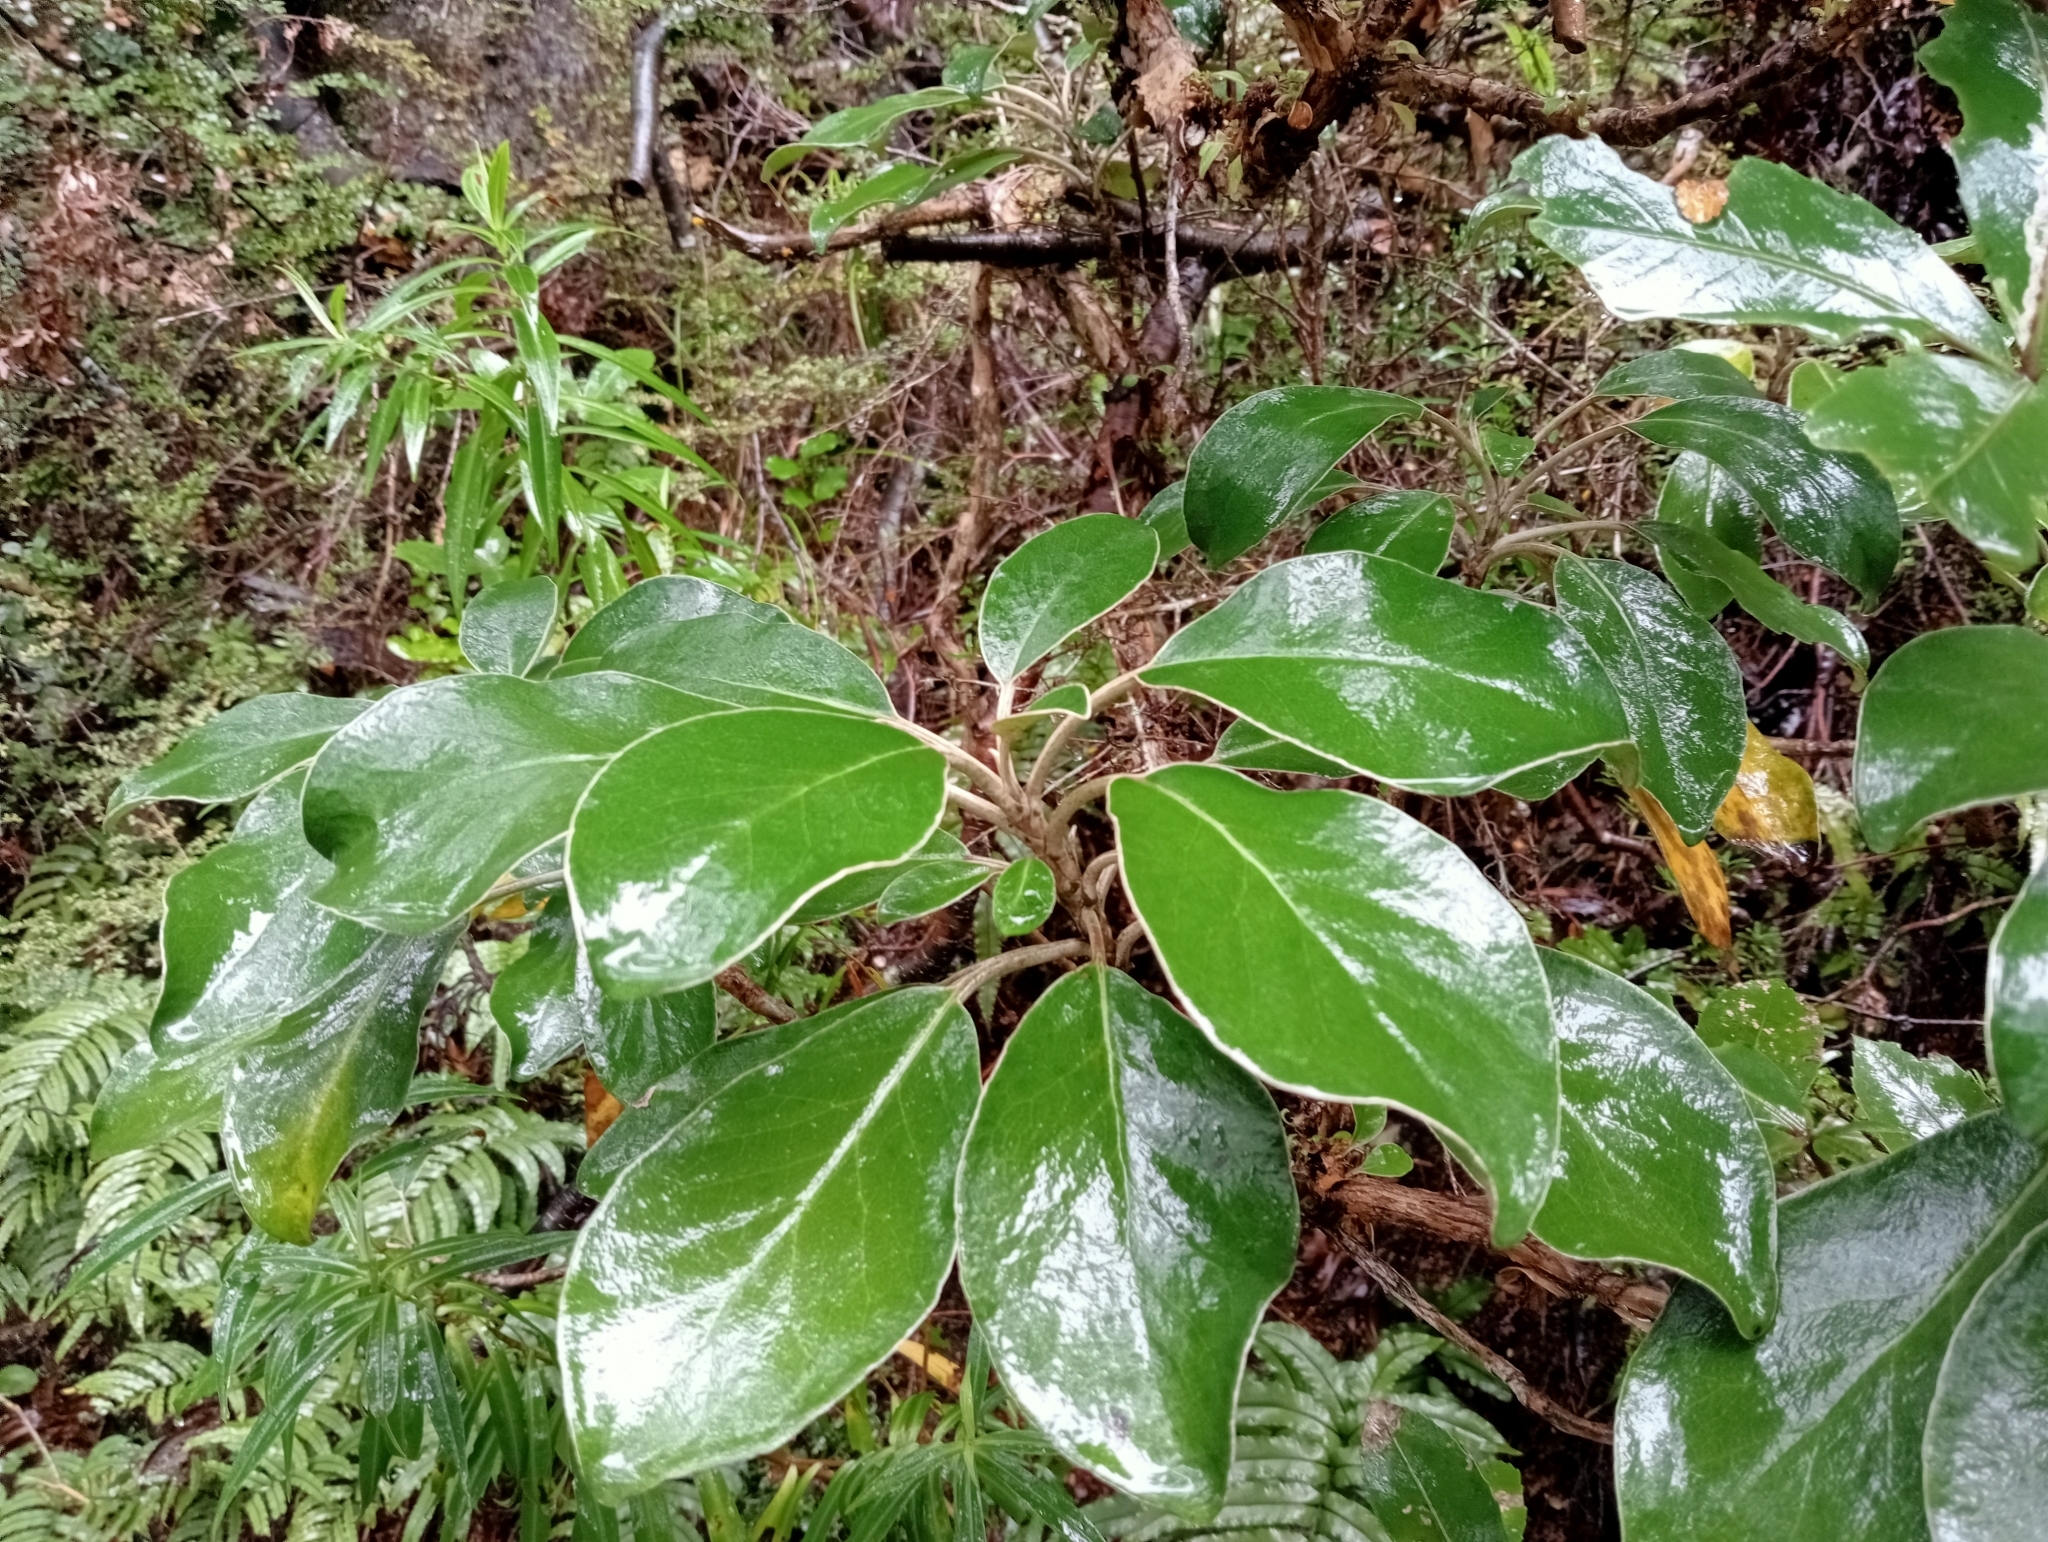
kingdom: Plantae
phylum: Tracheophyta
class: Magnoliopsida
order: Asterales
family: Asteraceae
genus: Brachyglottis
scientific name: Brachyglottis buchananii
